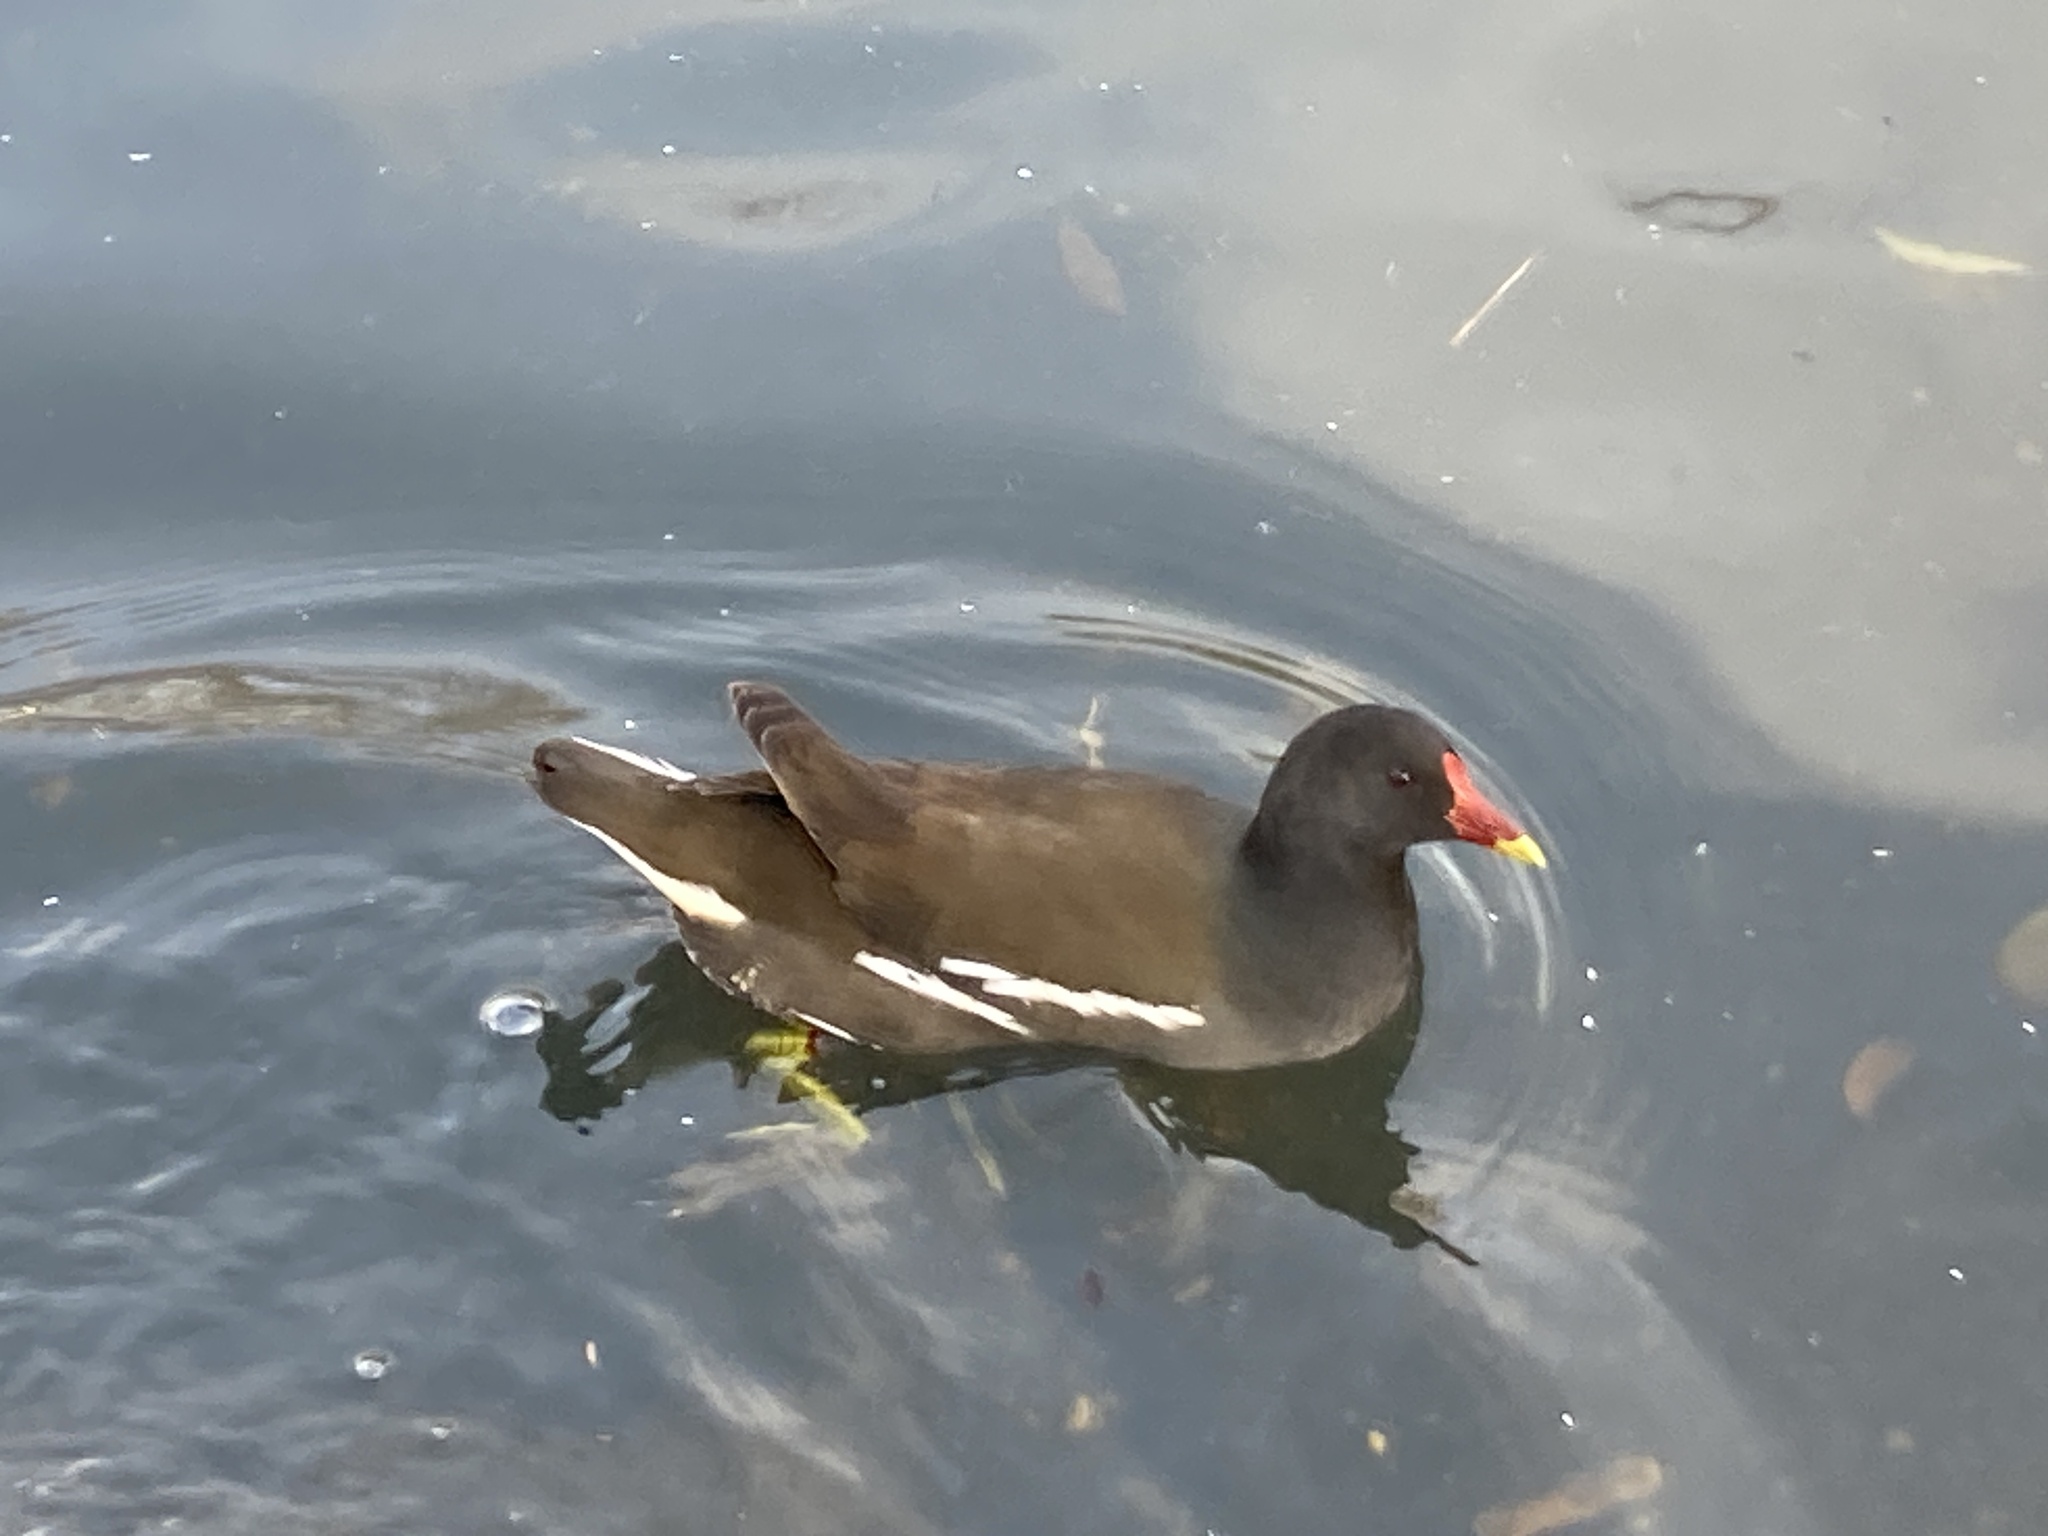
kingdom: Animalia
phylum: Chordata
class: Aves
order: Gruiformes
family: Rallidae
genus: Gallinula
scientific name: Gallinula chloropus
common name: Common moorhen
